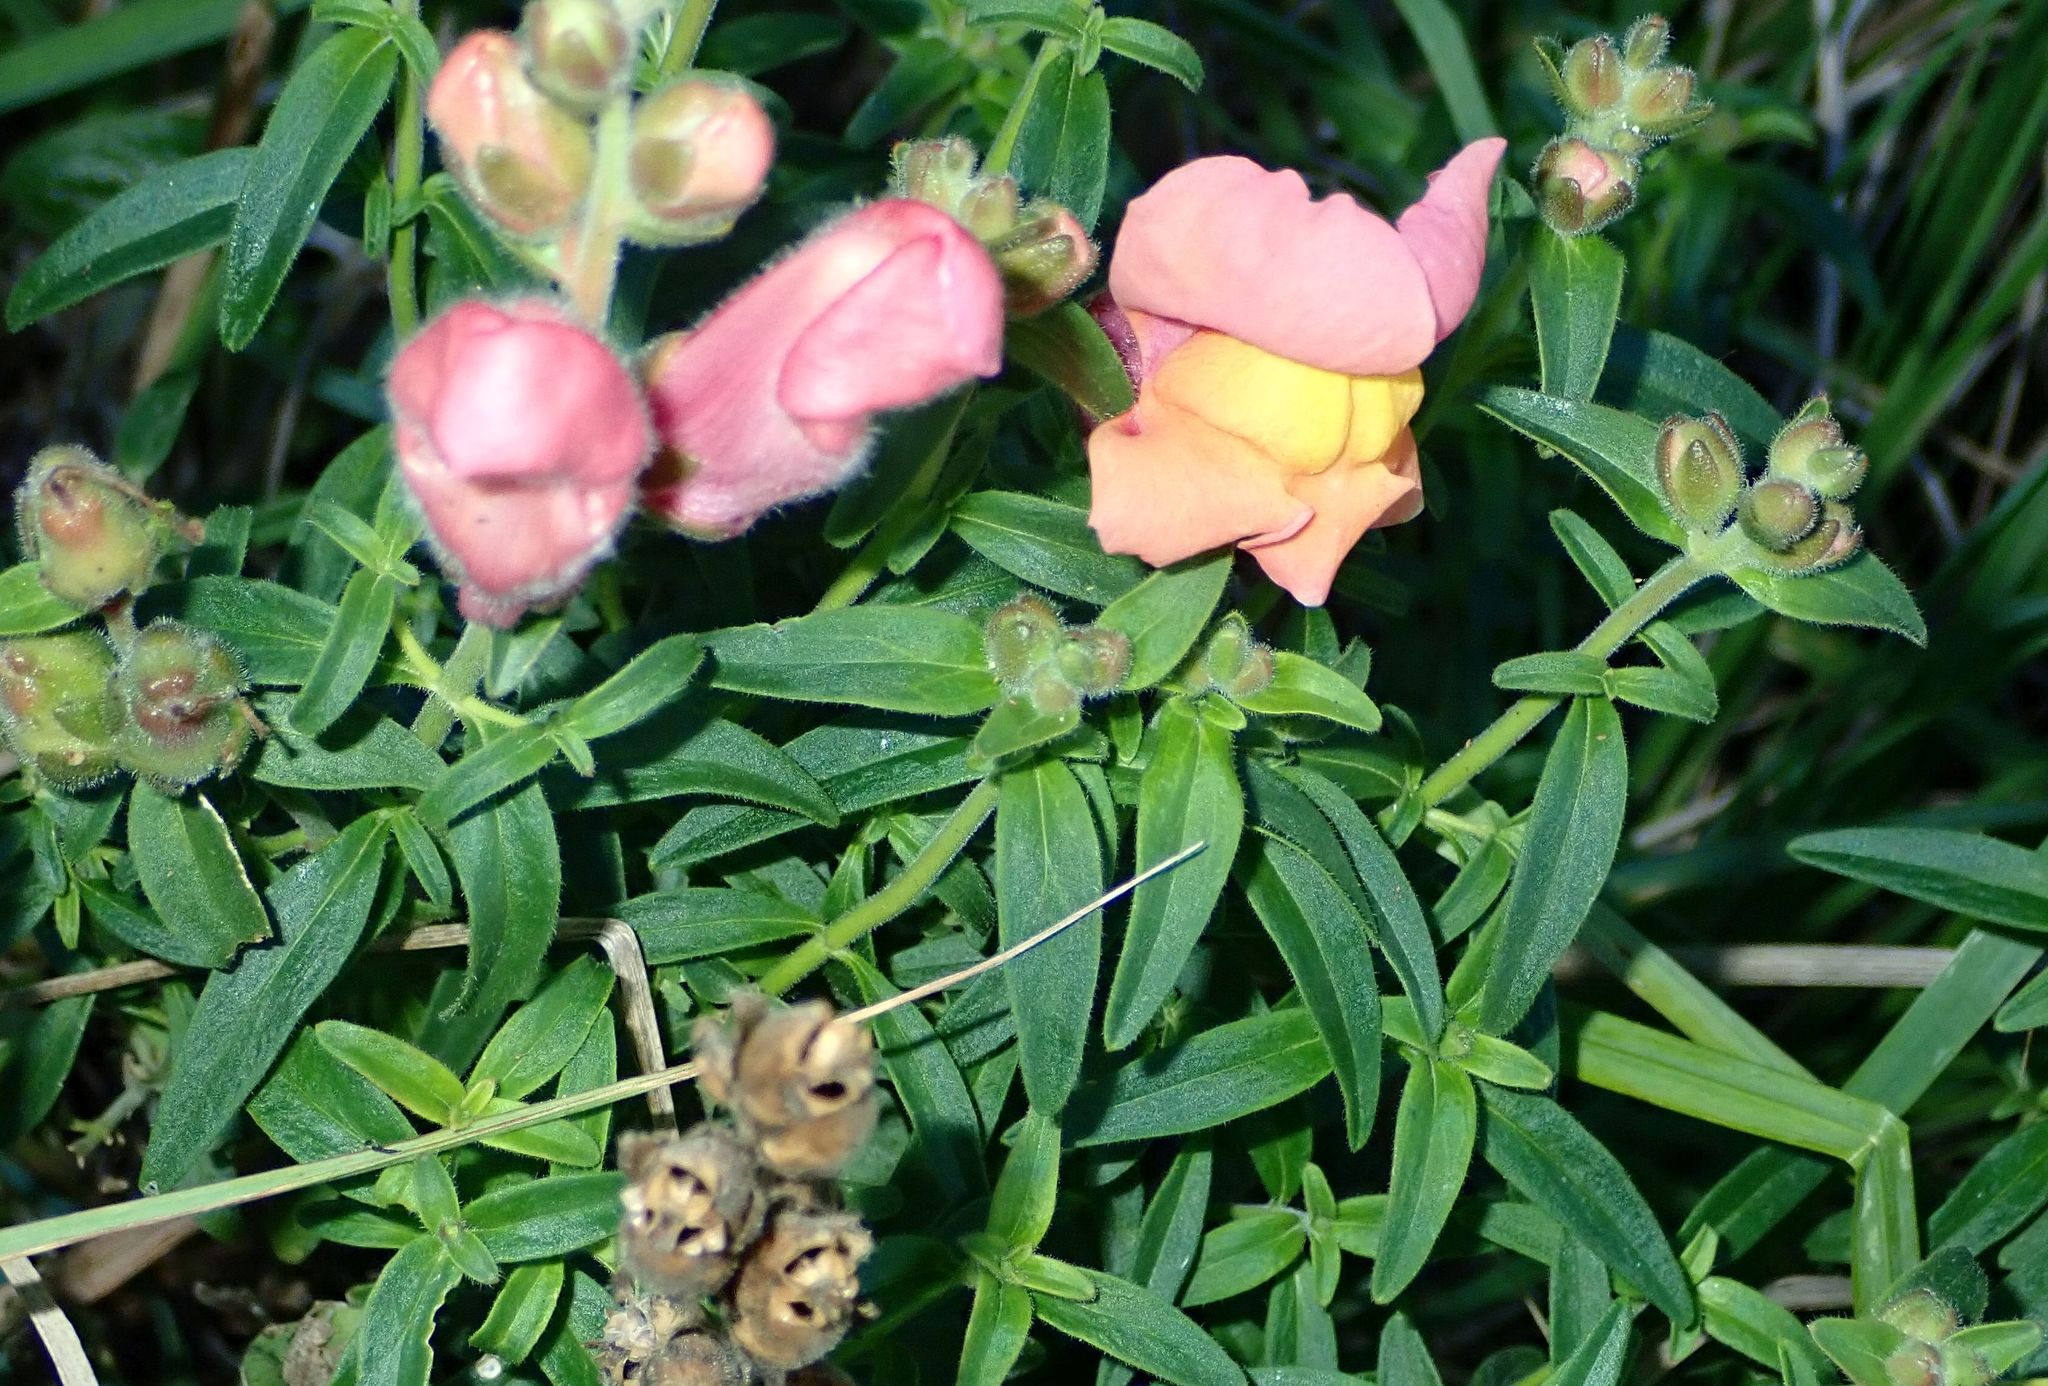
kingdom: Plantae
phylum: Tracheophyta
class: Magnoliopsida
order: Lamiales
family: Plantaginaceae
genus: Antirrhinum
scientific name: Antirrhinum majus
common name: Snapdragon
